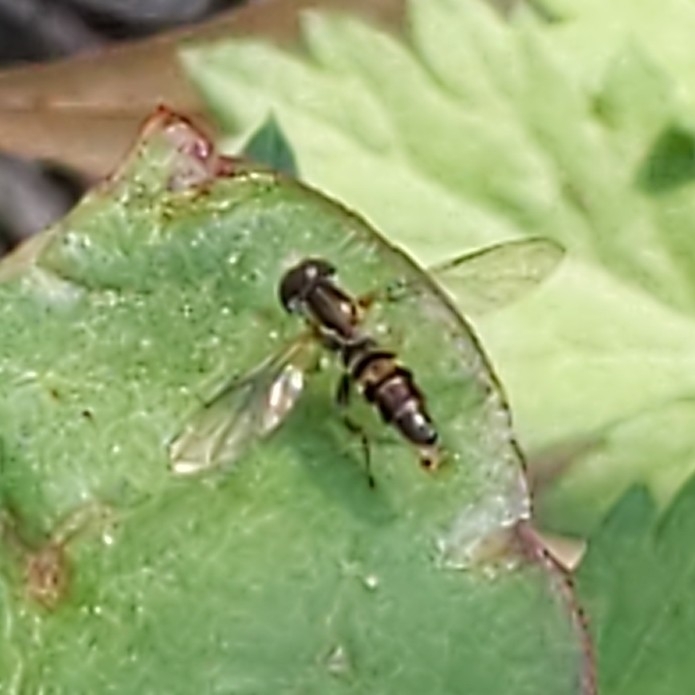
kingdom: Animalia
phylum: Arthropoda
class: Insecta
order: Diptera
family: Syrphidae
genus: Toxomerus
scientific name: Toxomerus geminatus
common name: Eastern calligrapher
